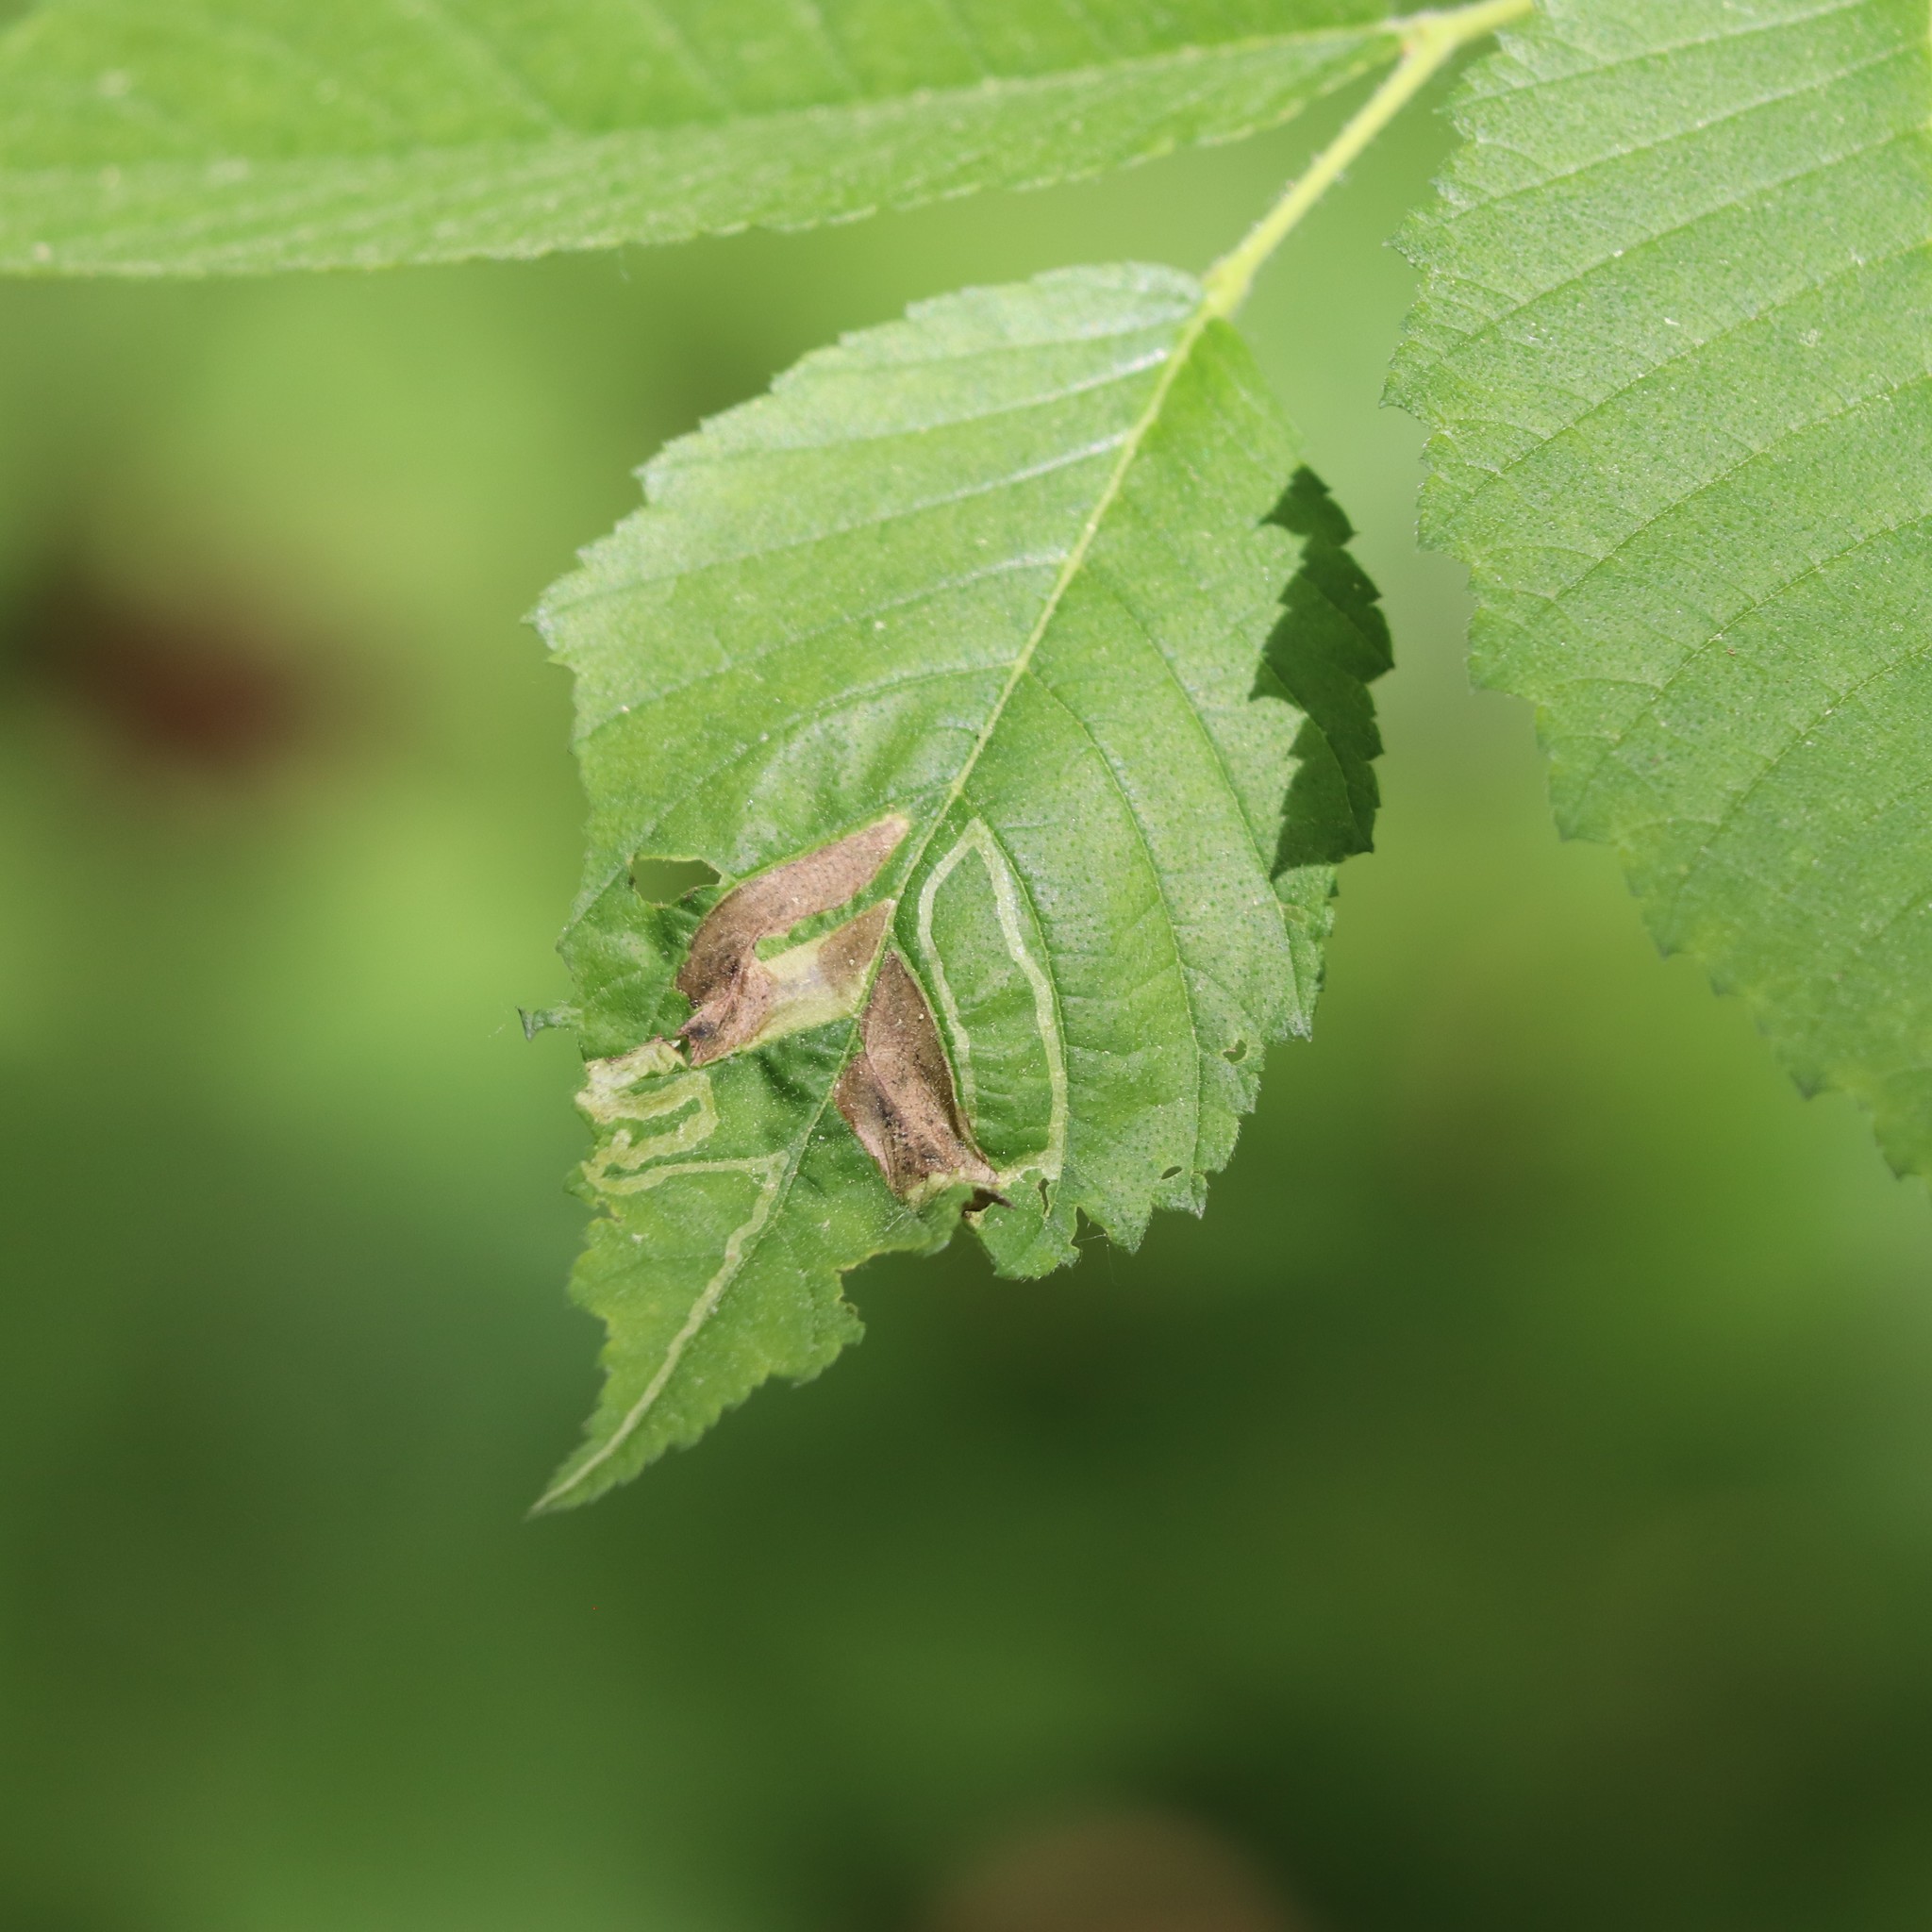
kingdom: Animalia
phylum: Arthropoda
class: Insecta
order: Diptera
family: Agromyzidae
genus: Agromyza
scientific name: Agromyza aristata
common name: Elm agromyzid leafminer
